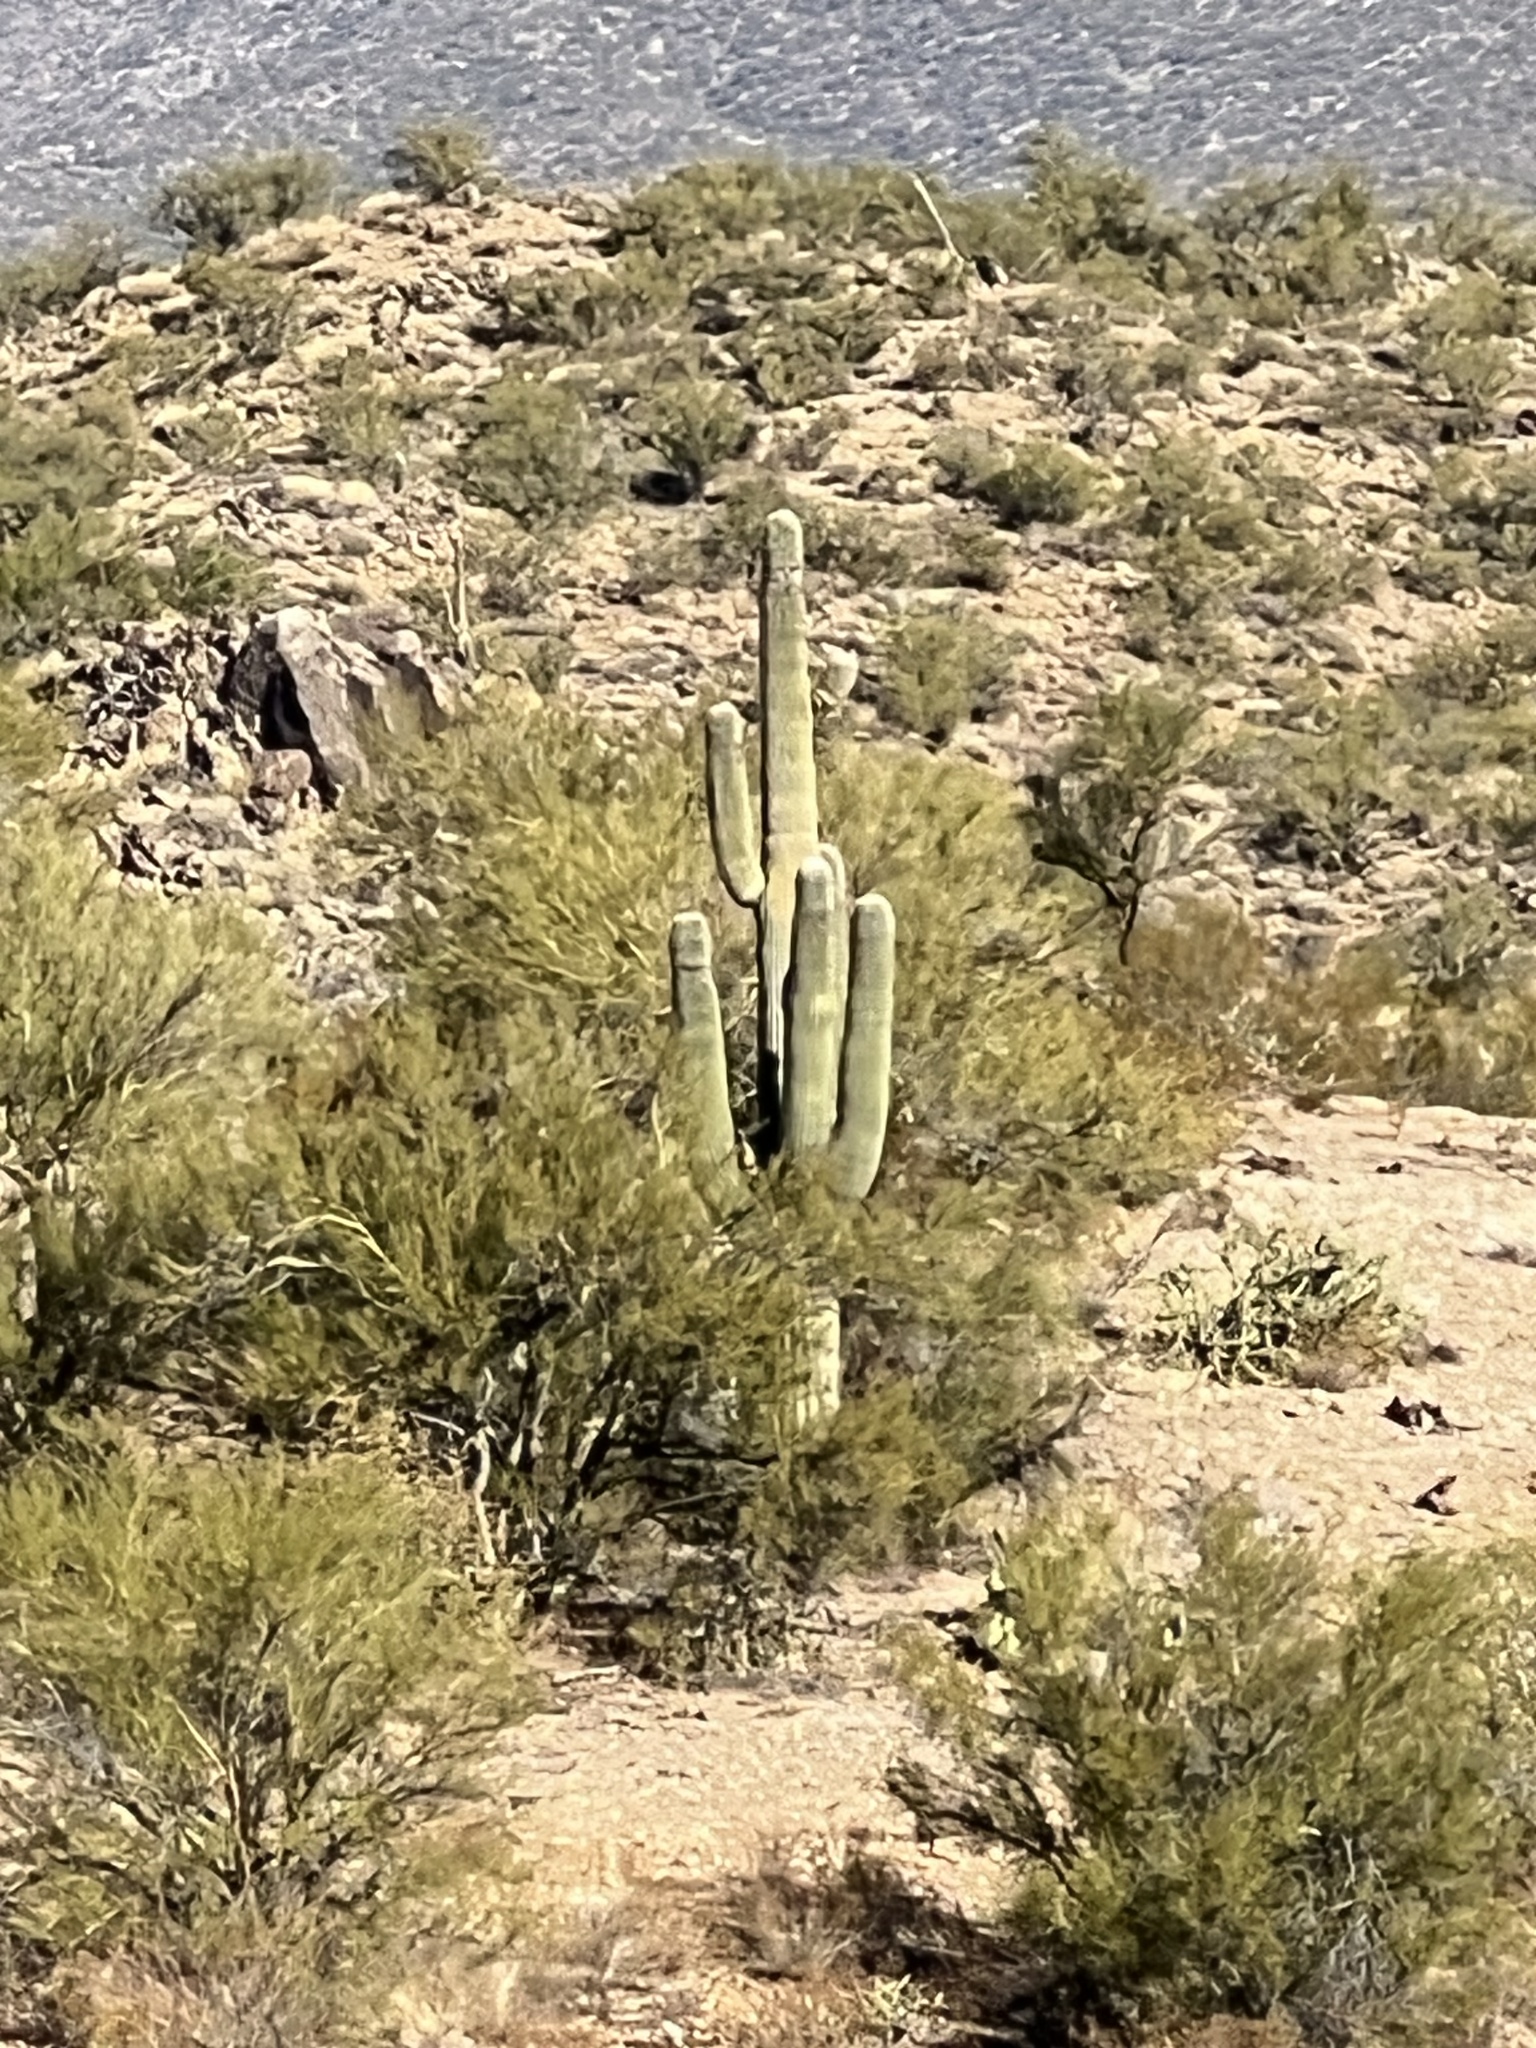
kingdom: Plantae
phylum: Tracheophyta
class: Magnoliopsida
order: Caryophyllales
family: Cactaceae
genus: Carnegiea
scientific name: Carnegiea gigantea
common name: Saguaro
